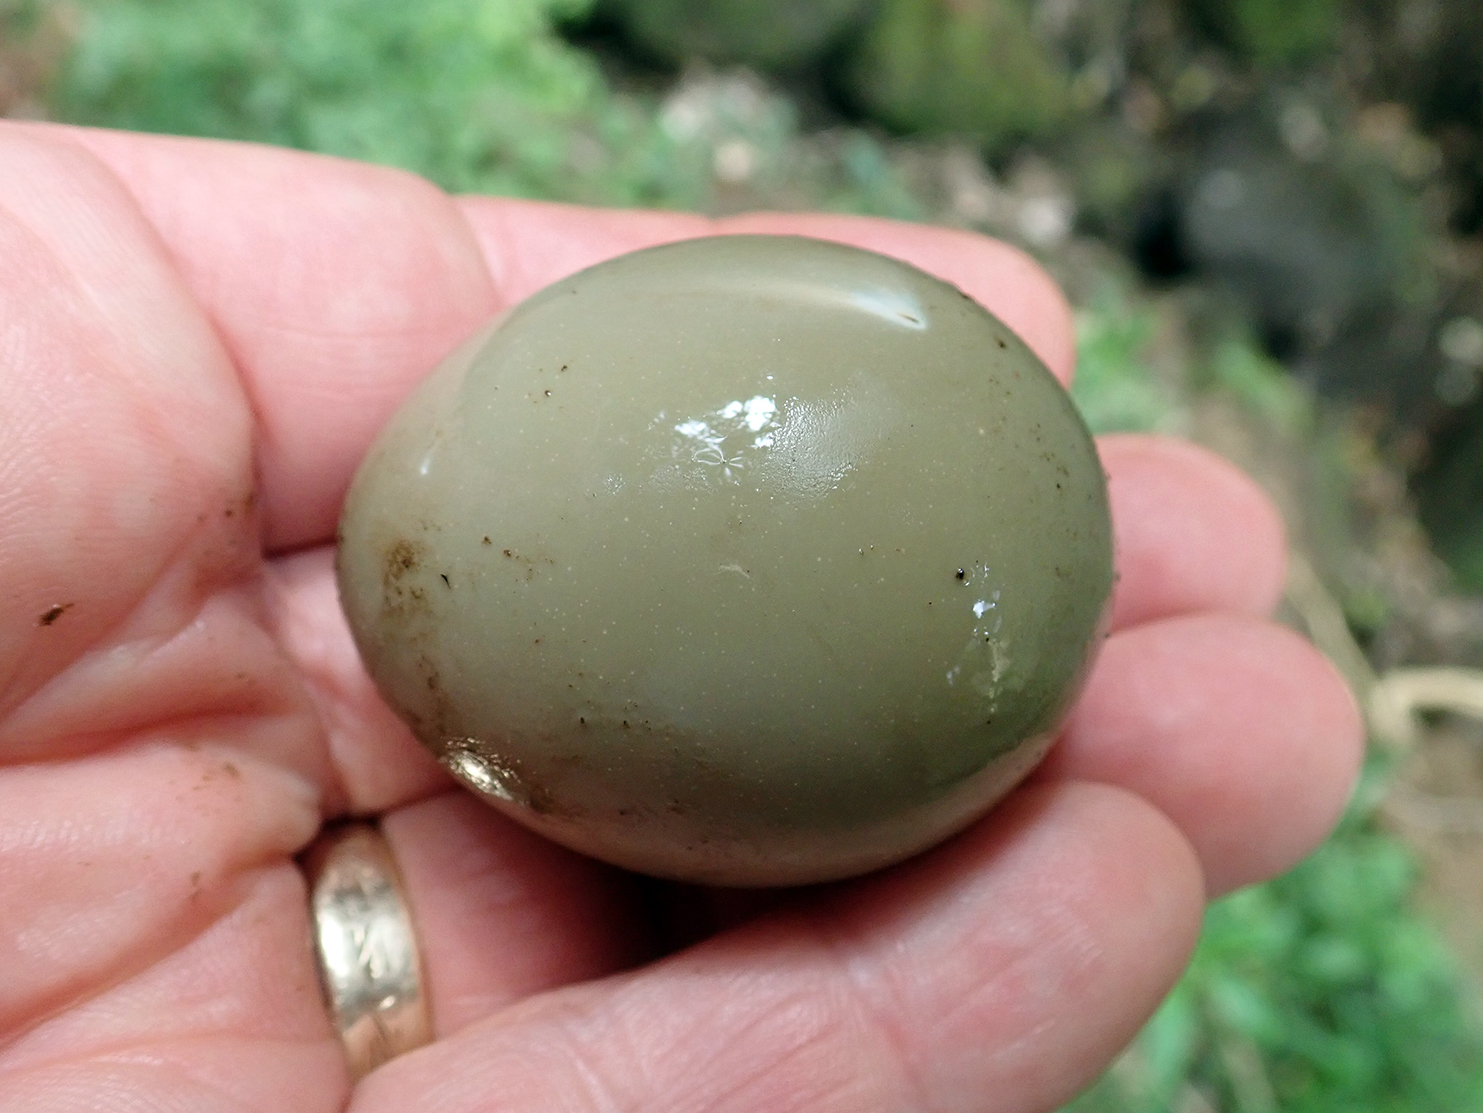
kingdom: Animalia
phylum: Chordata
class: Aves
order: Galliformes
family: Phasianidae
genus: Phasianus
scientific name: Phasianus colchicus
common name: Common pheasant
